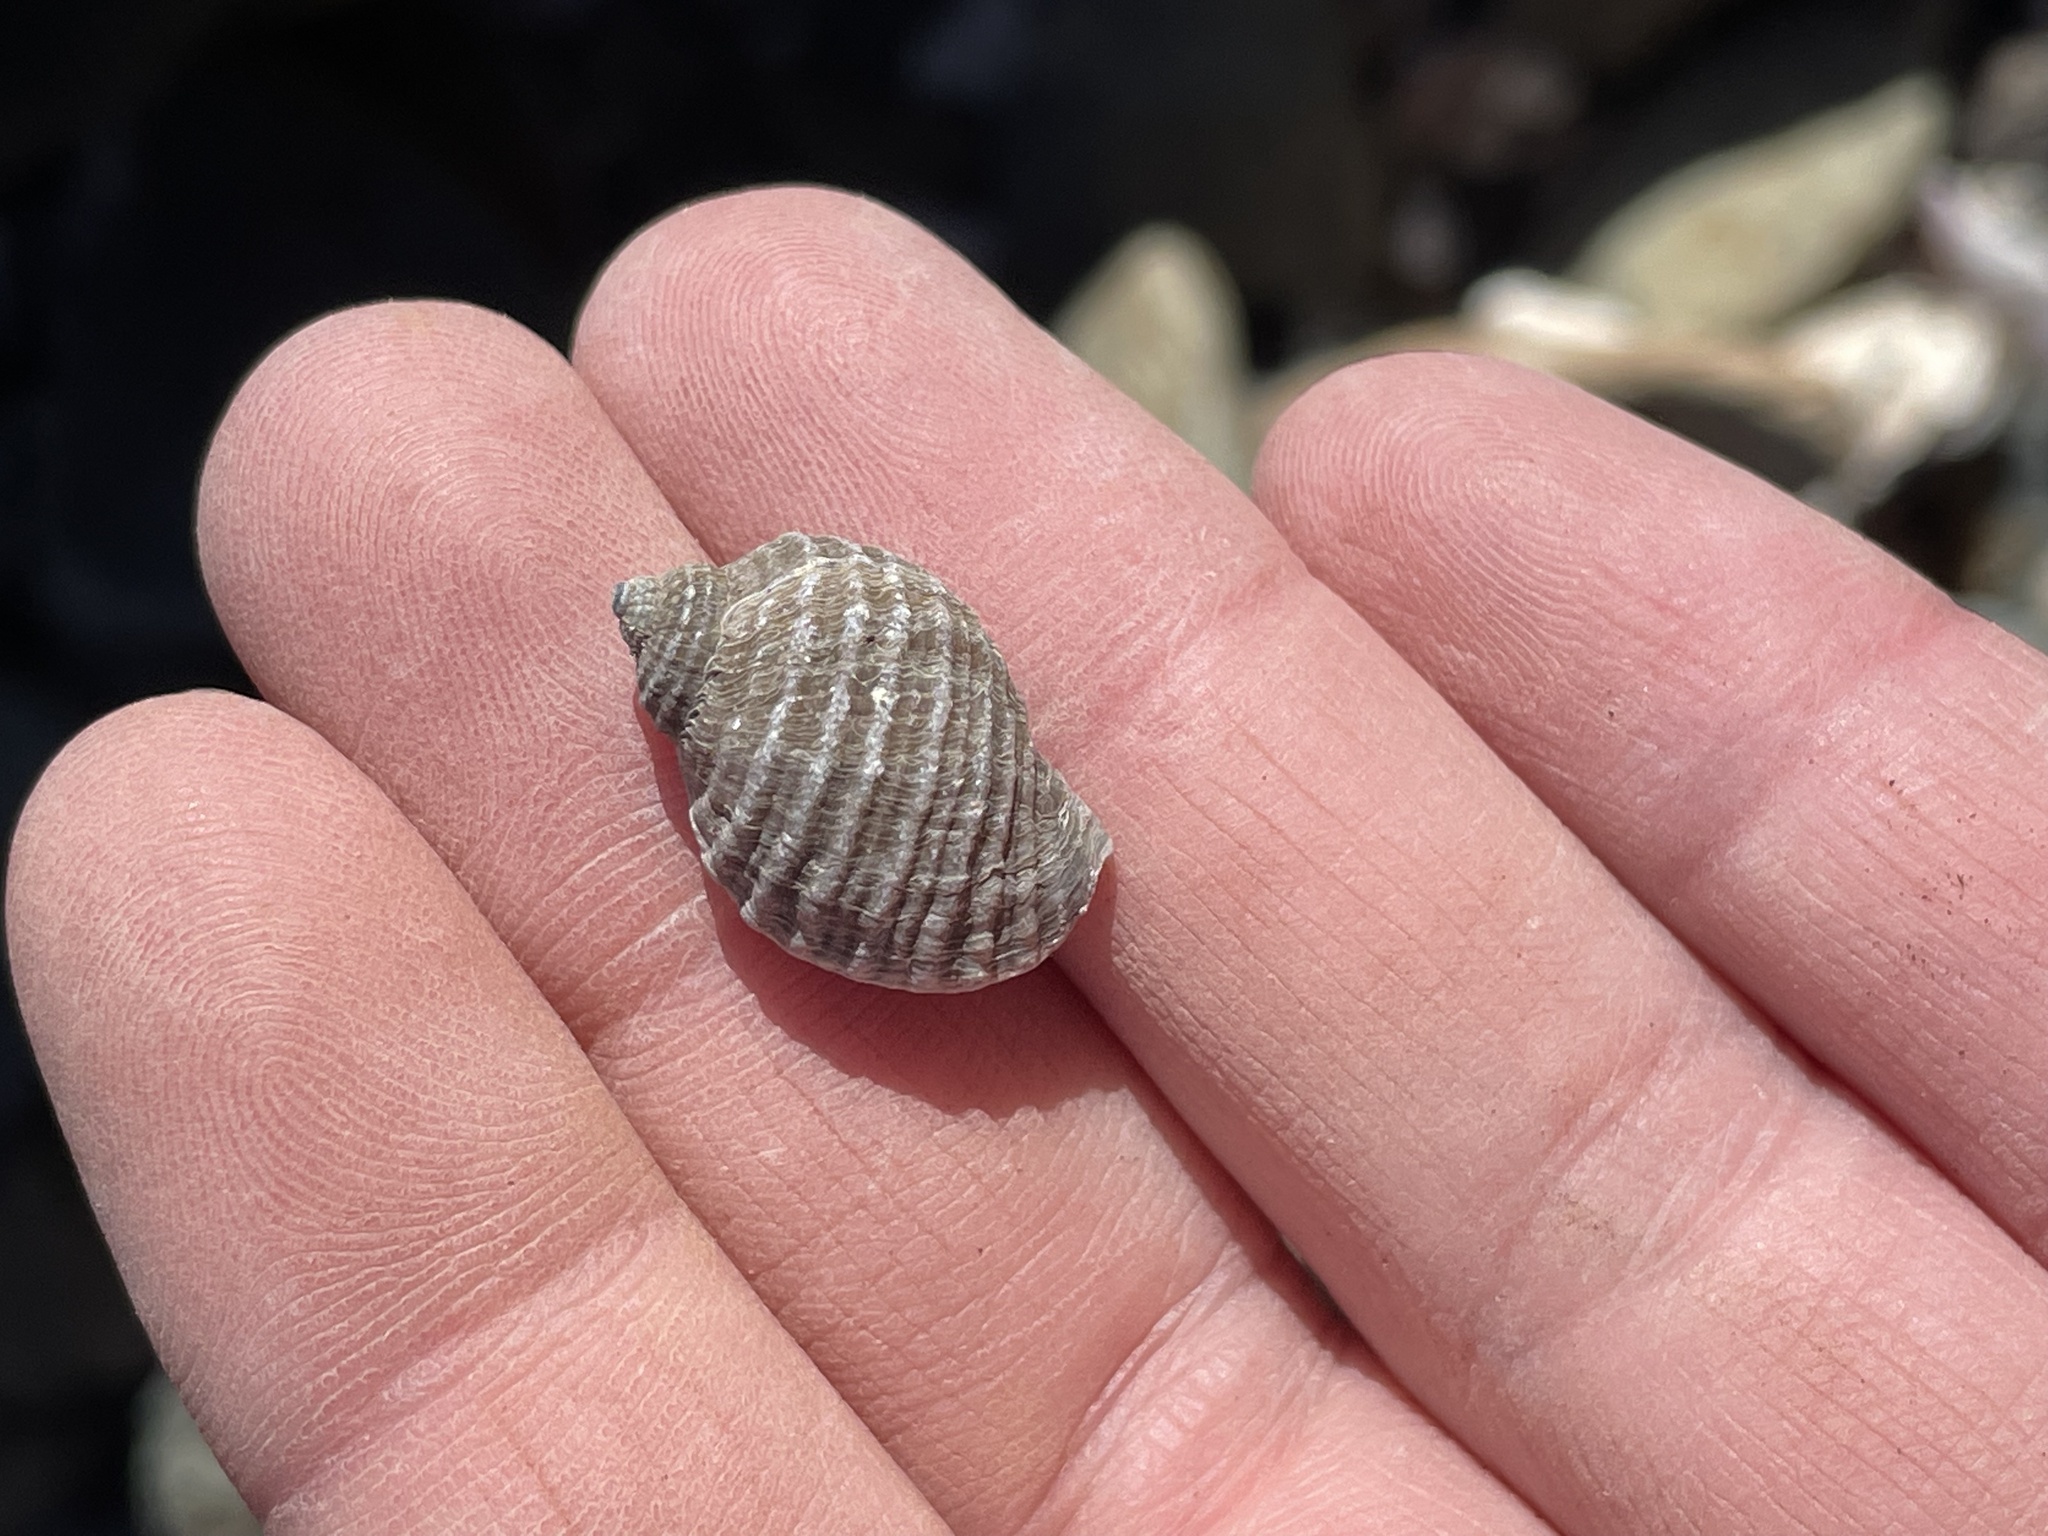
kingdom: Animalia
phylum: Mollusca
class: Gastropoda
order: Neogastropoda
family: Muricidae
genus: Nucella
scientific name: Nucella lapillus
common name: Dog whelk
